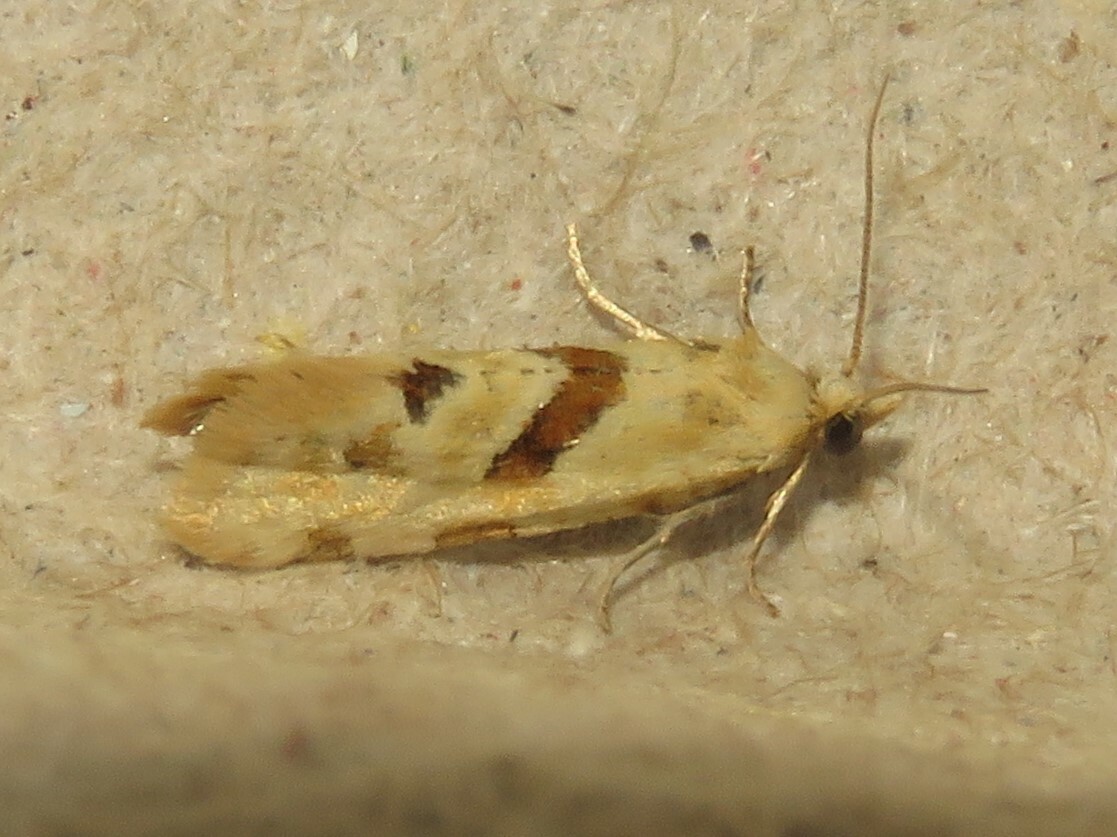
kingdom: Animalia
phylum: Arthropoda
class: Insecta
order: Lepidoptera
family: Tortricidae
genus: Aethes
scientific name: Aethes smeathmanniana
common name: Yarrow conch
